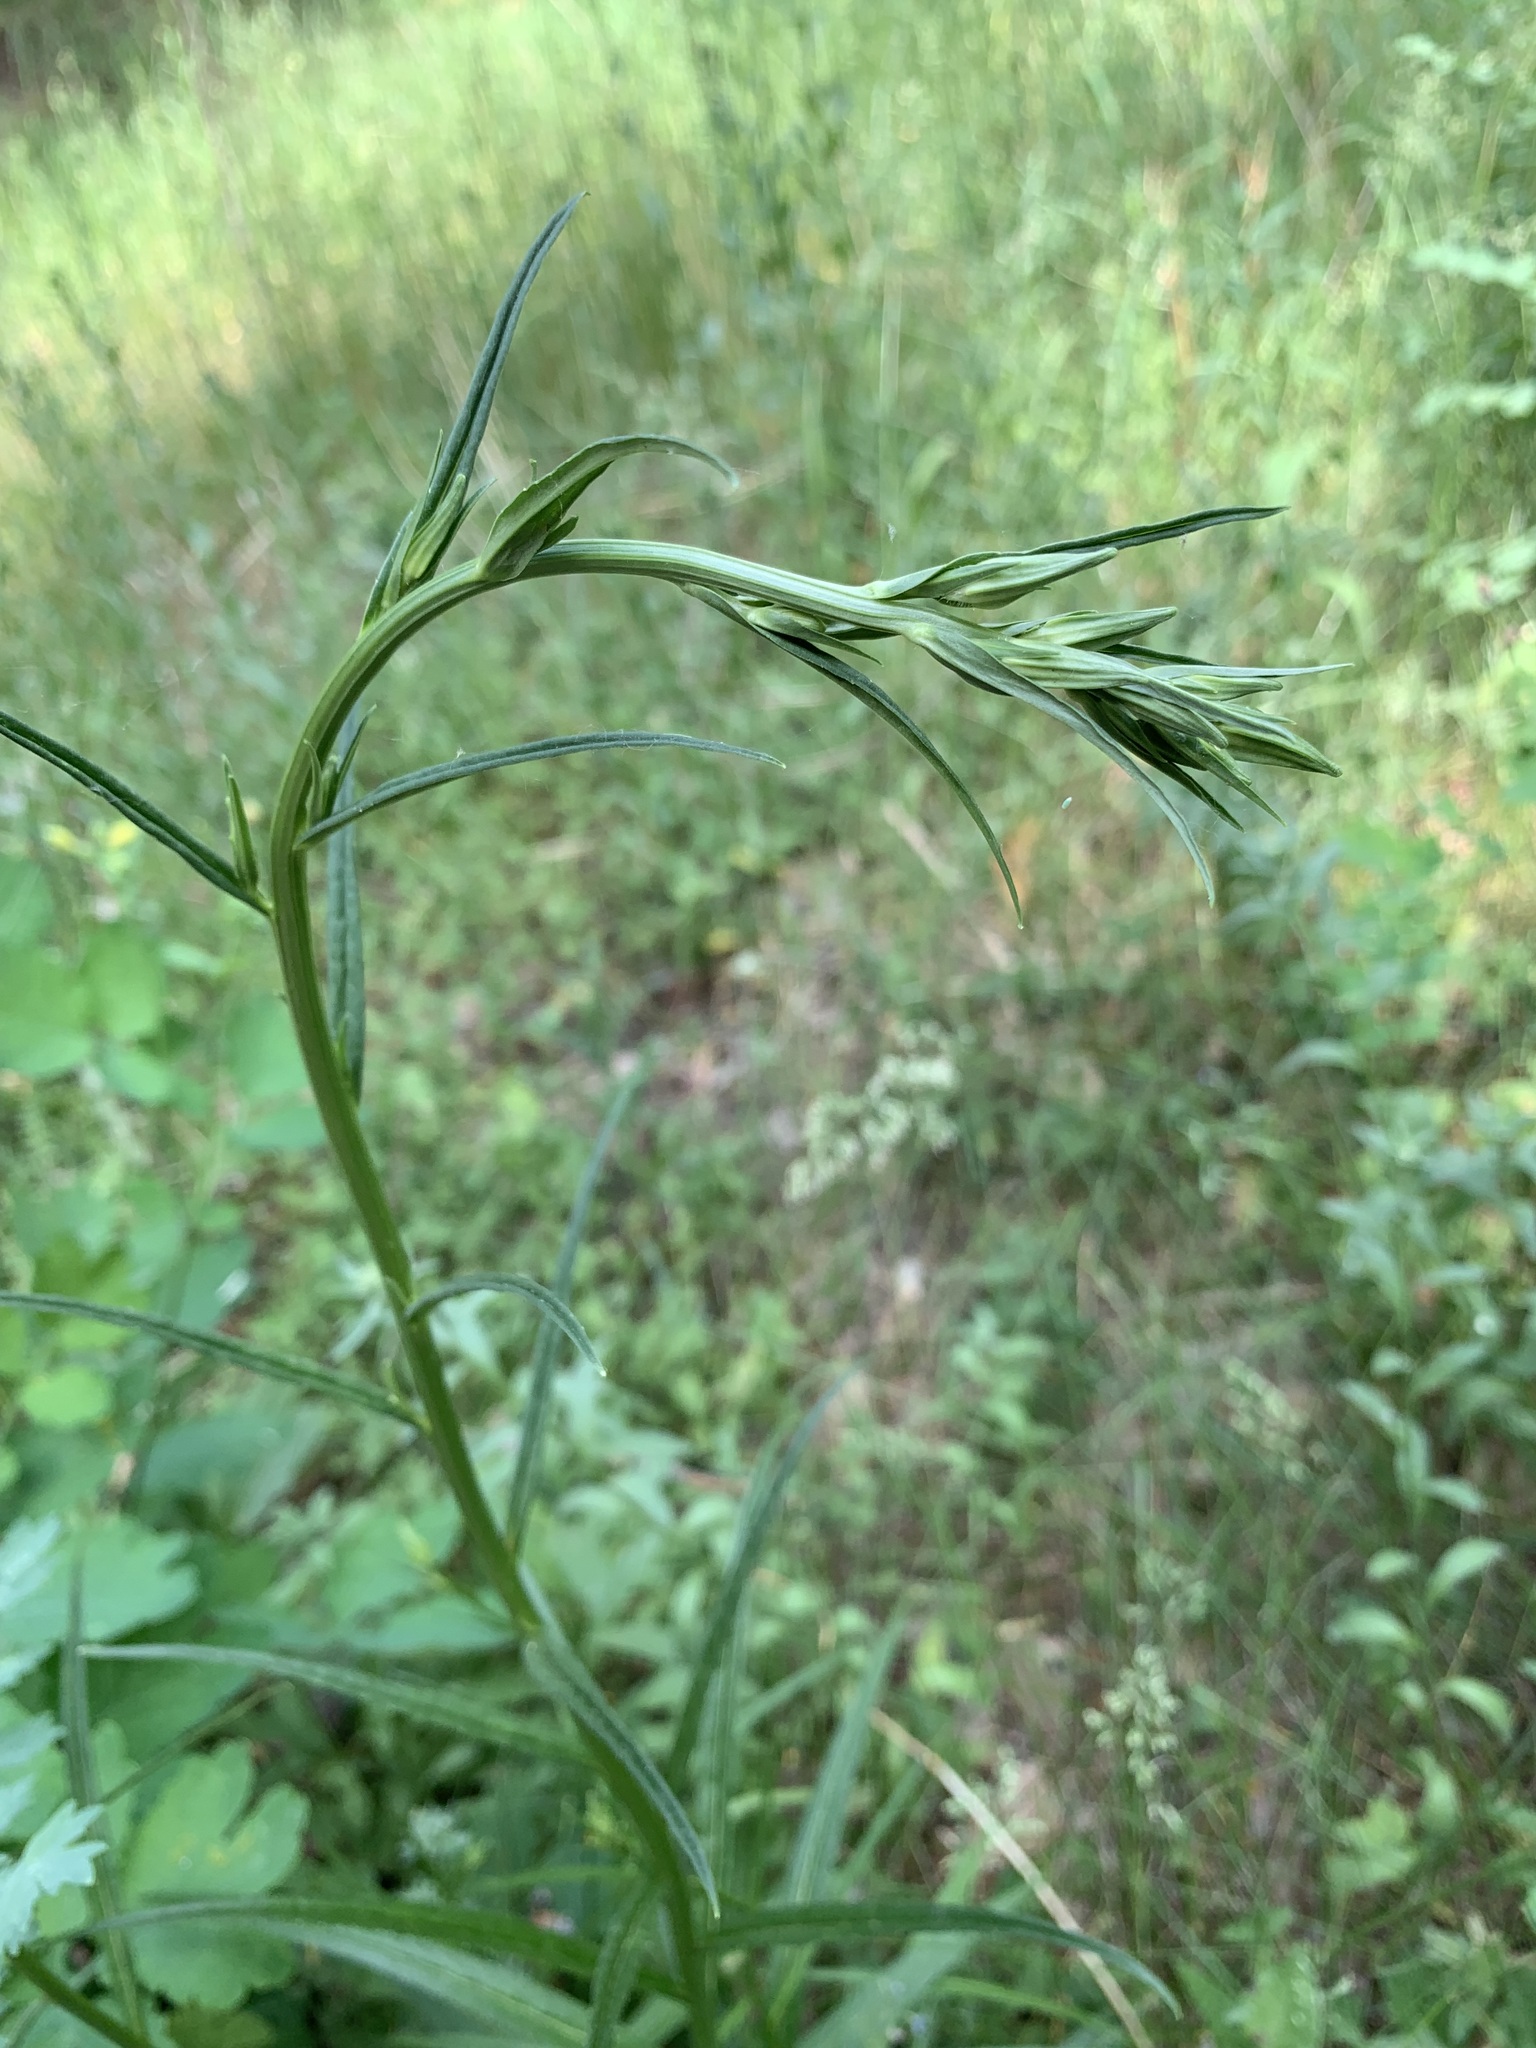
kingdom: Plantae
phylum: Tracheophyta
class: Magnoliopsida
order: Asterales
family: Campanulaceae
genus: Campanula
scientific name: Campanula persicifolia
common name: Peach-leaved bellflower
